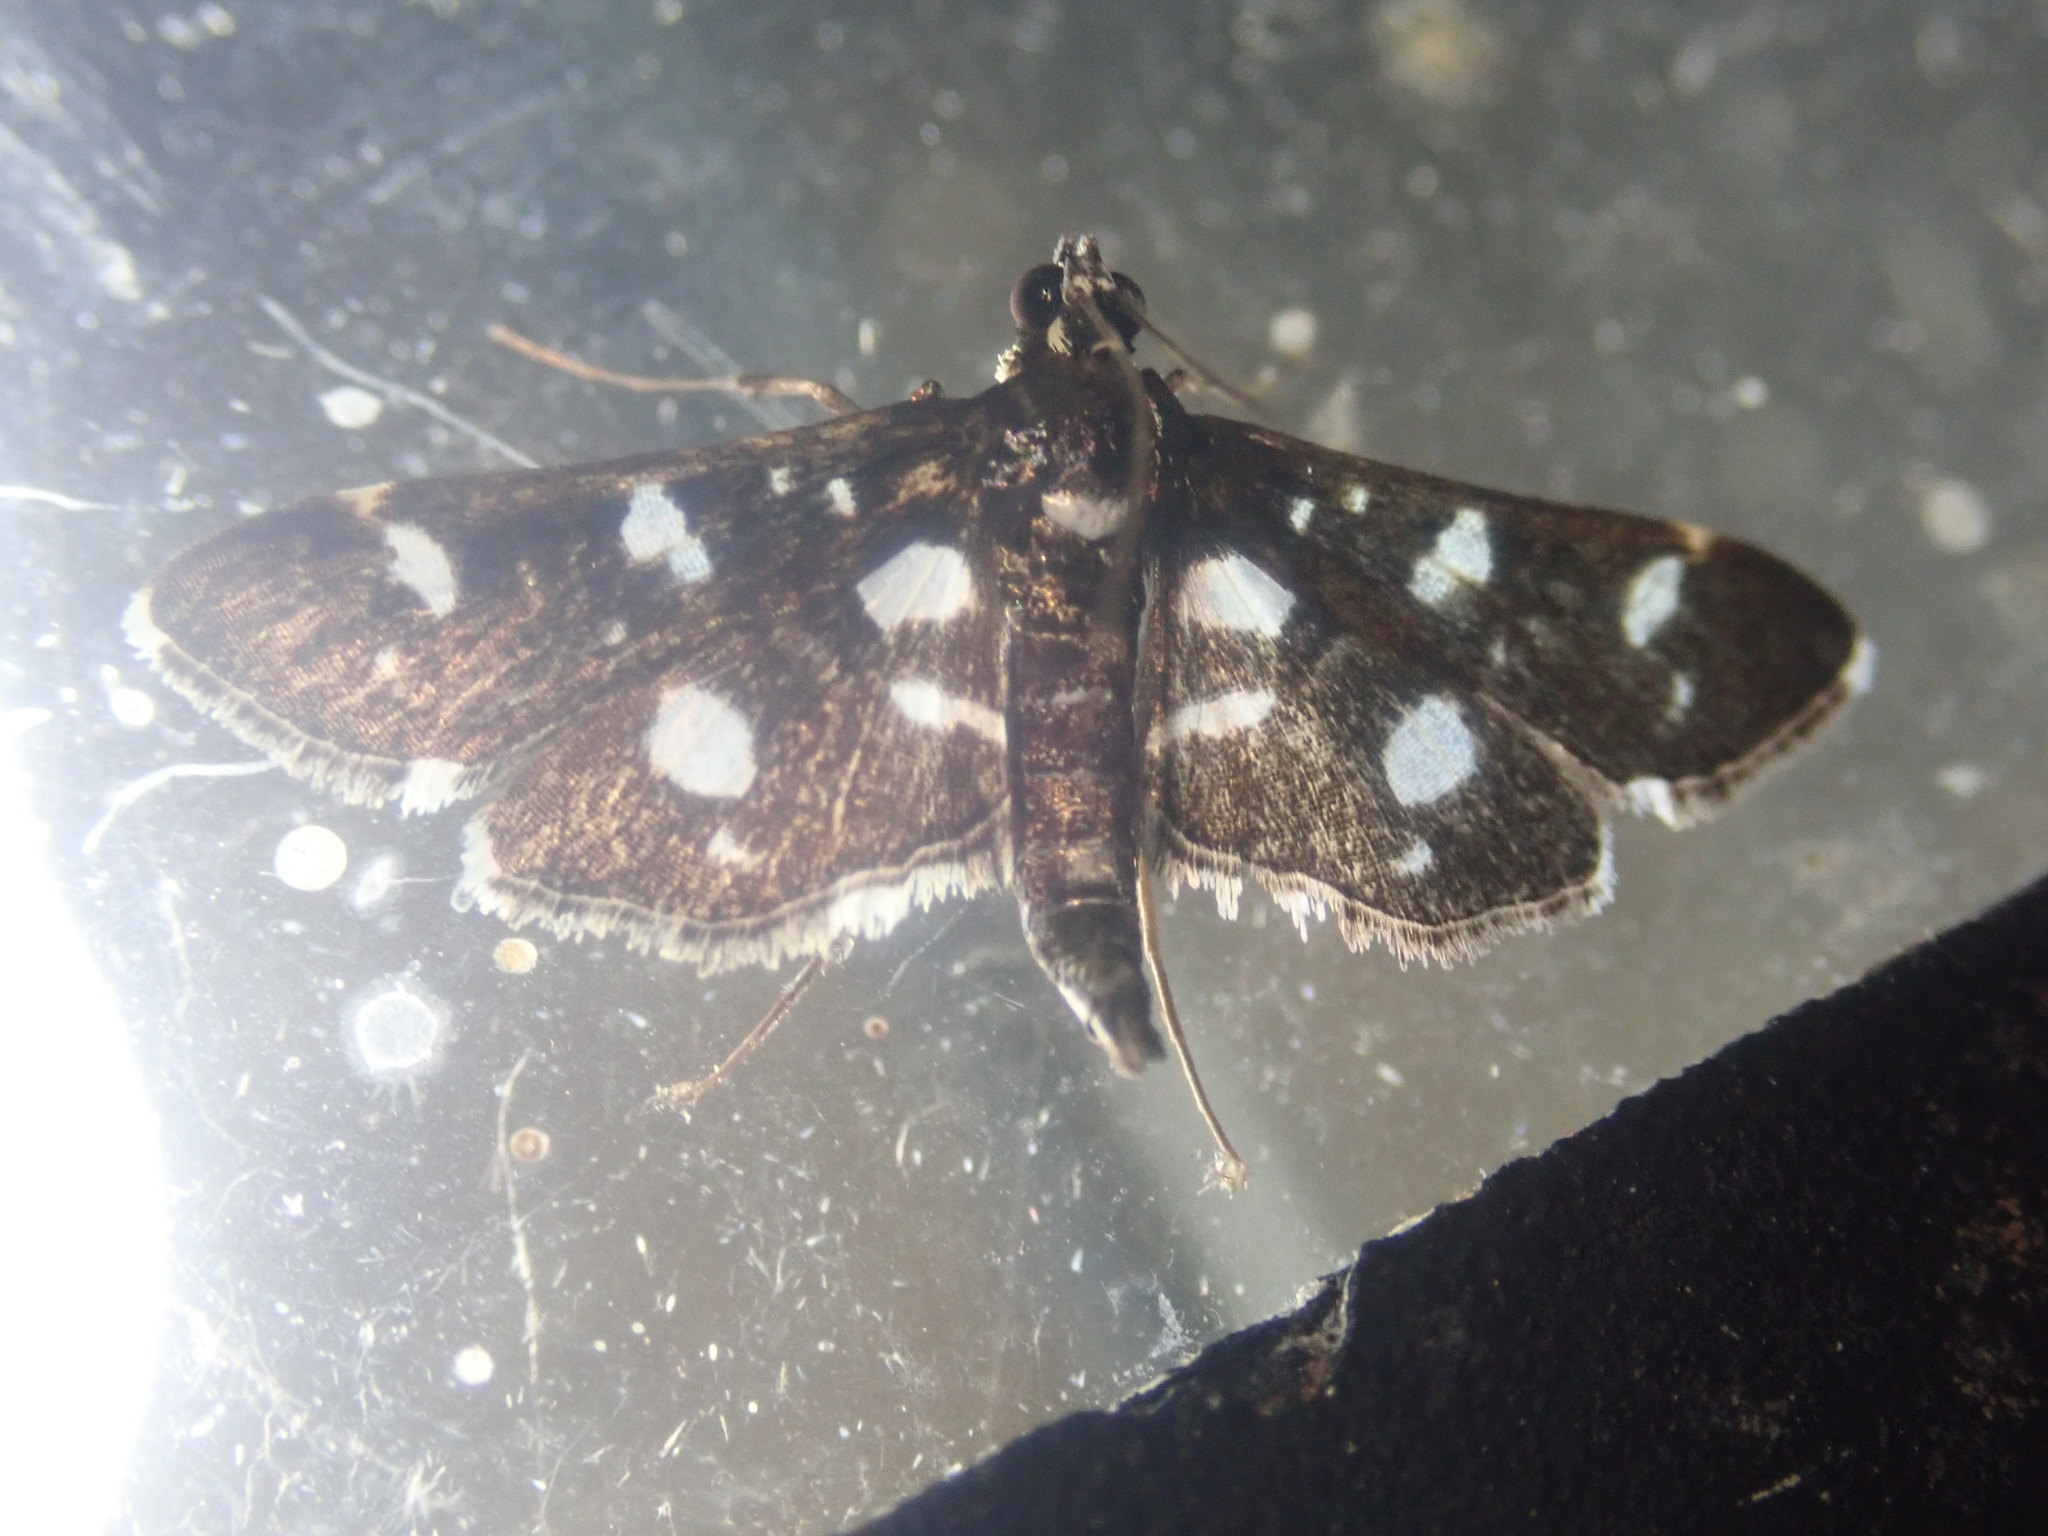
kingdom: Animalia
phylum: Arthropoda
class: Insecta
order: Lepidoptera
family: Crambidae
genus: Bocchoris
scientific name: Bocchoris inspersalis
